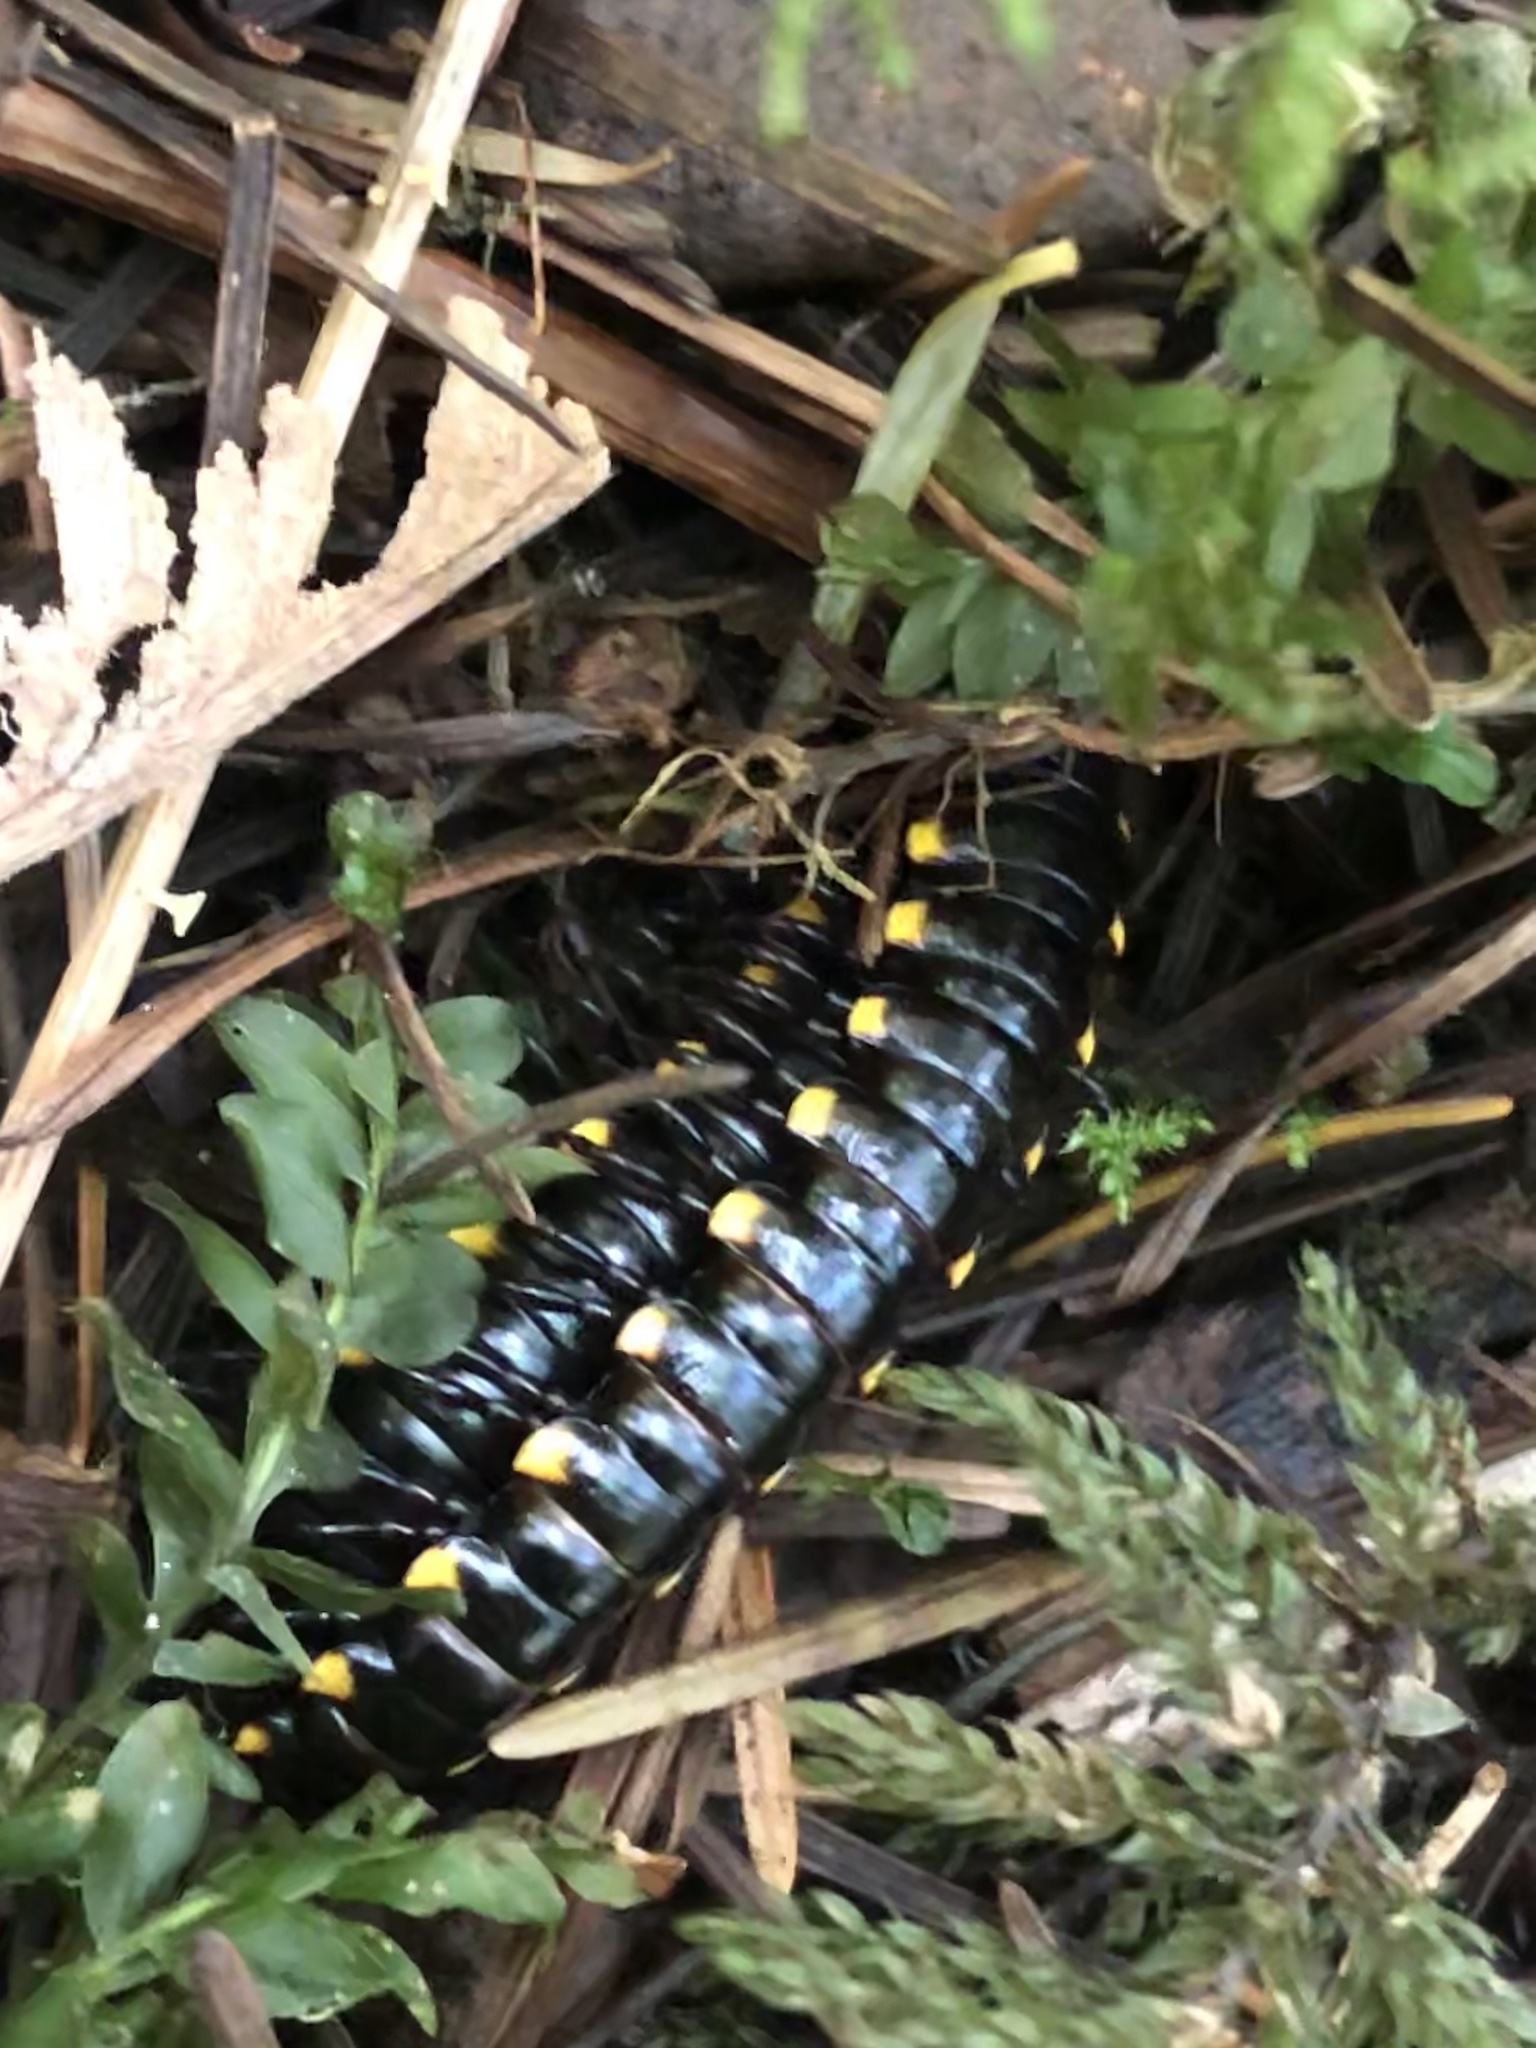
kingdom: Animalia
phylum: Arthropoda
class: Diplopoda
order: Polydesmida
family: Xystodesmidae
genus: Harpaphe
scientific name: Harpaphe haydeniana
